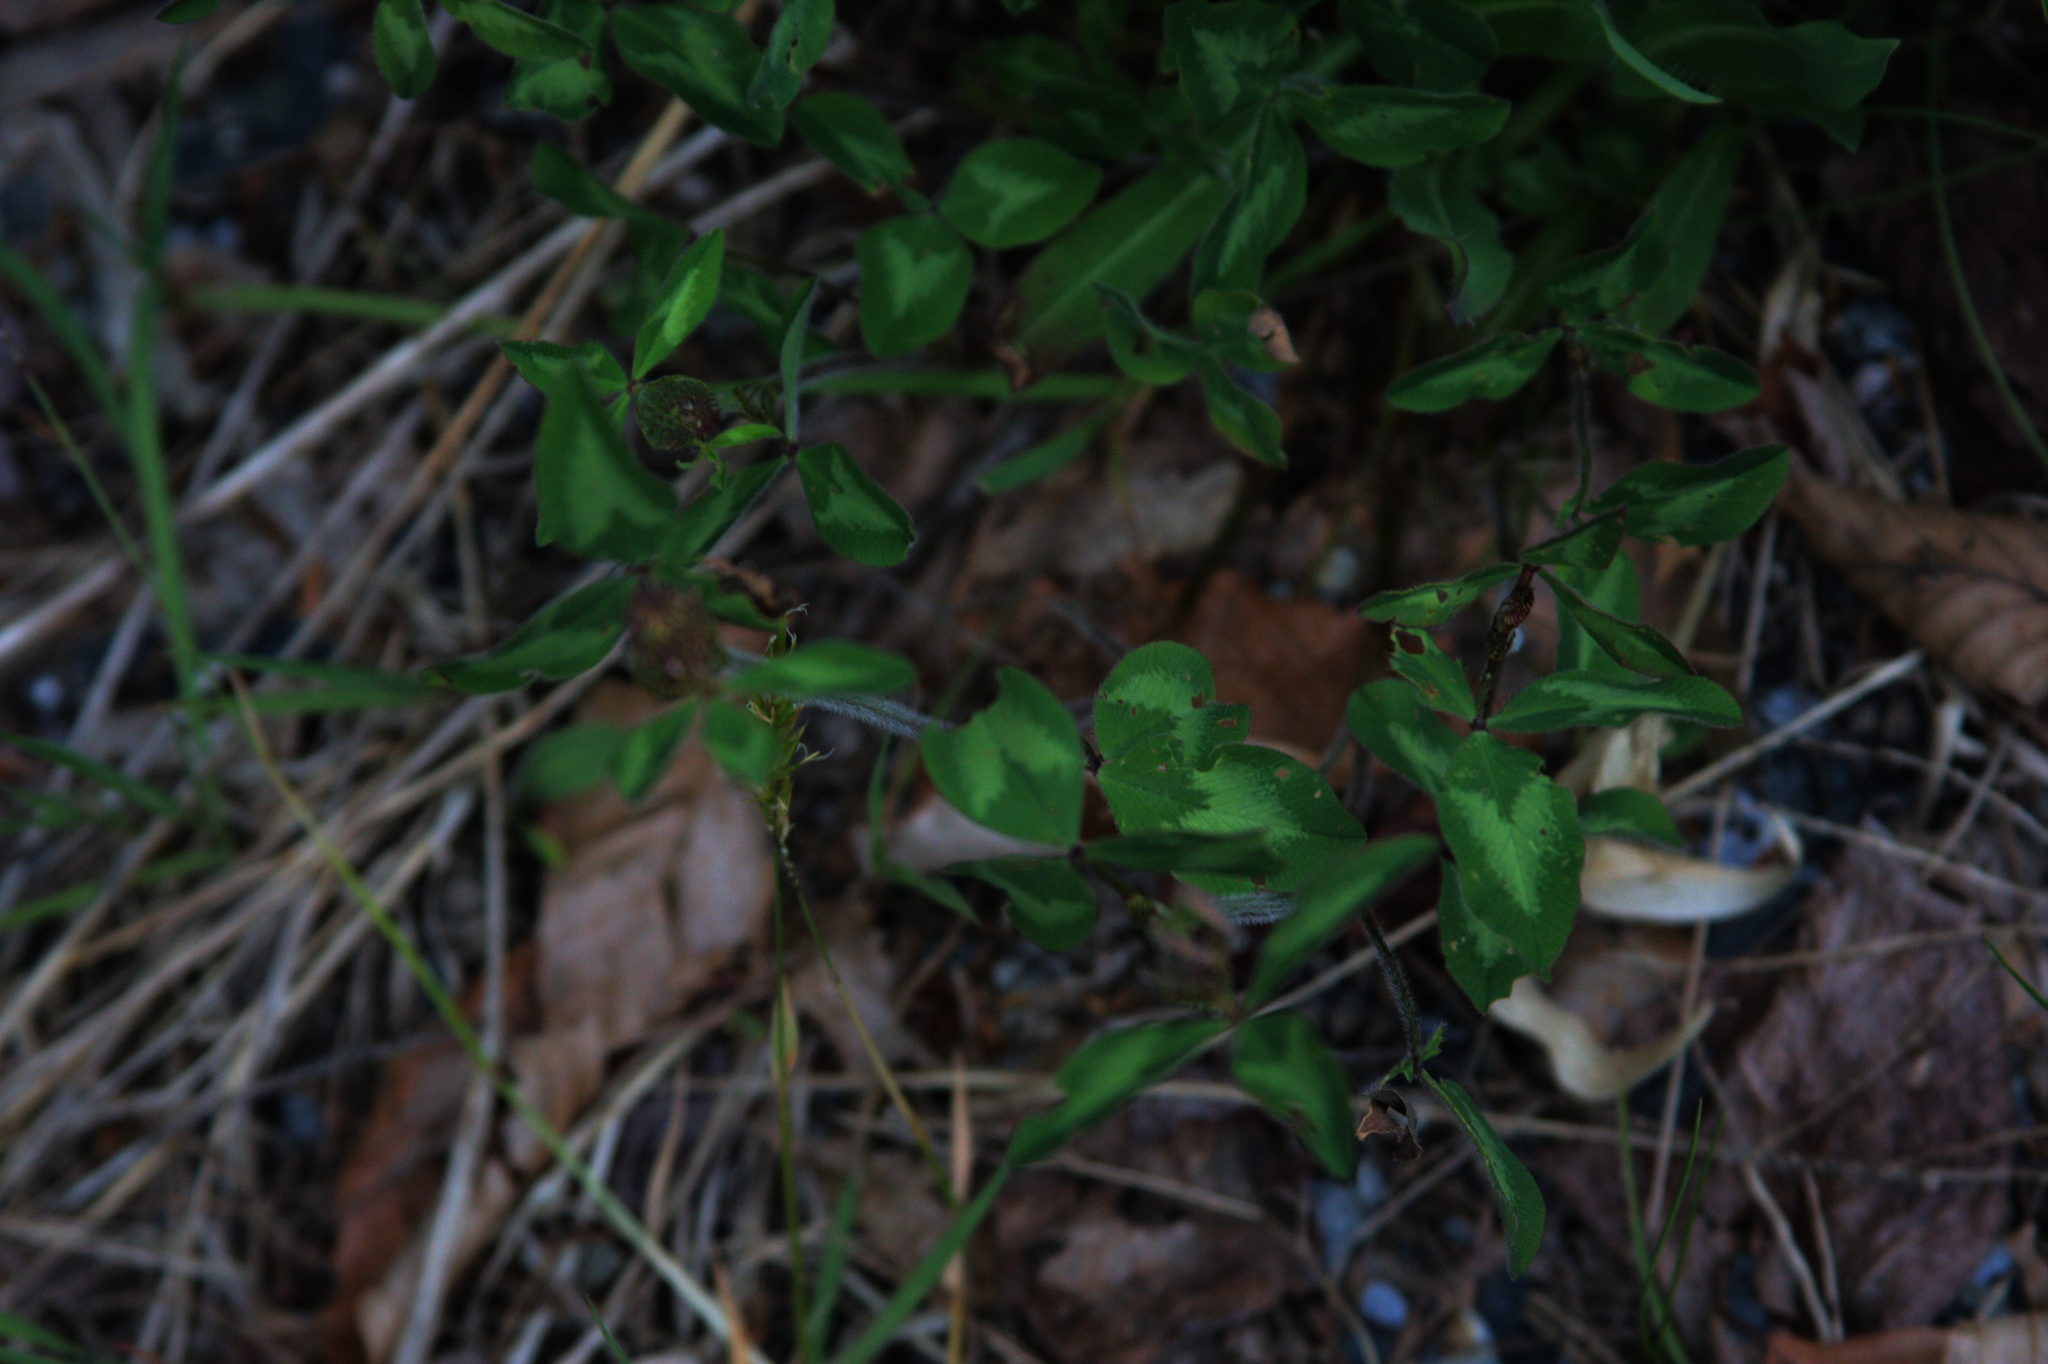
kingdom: Plantae
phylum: Tracheophyta
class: Magnoliopsida
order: Fabales
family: Fabaceae
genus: Trifolium
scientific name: Trifolium pratense
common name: Red clover
